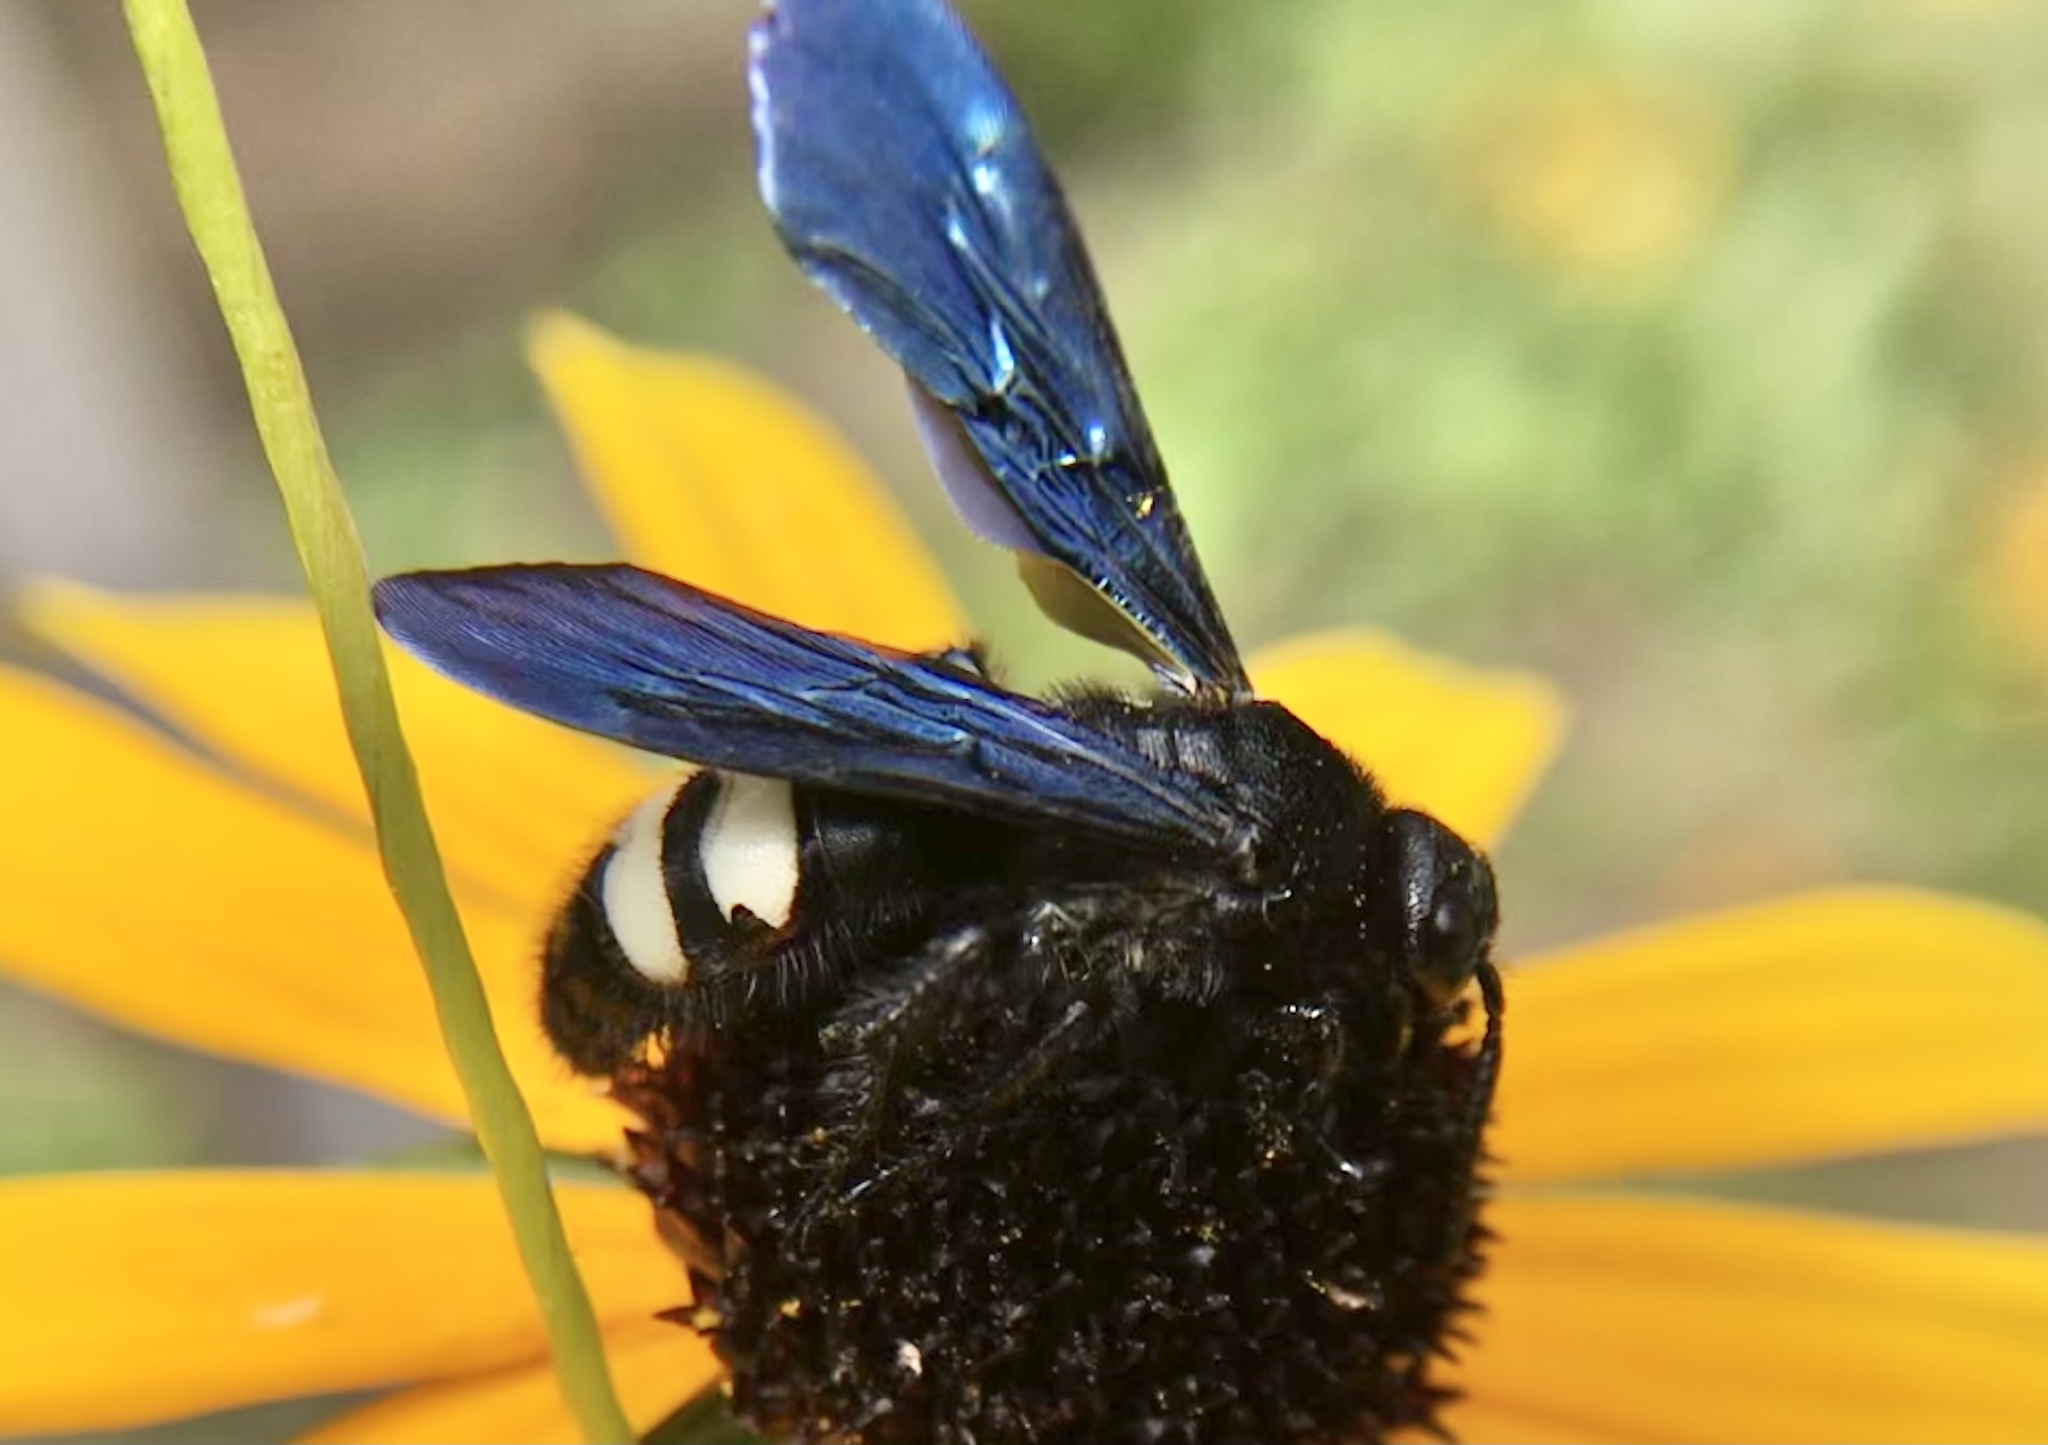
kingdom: Animalia
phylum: Arthropoda
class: Insecta
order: Hymenoptera
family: Scoliidae
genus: Scolia
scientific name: Scolia bicincta
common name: Double-banded scoliid wasp
